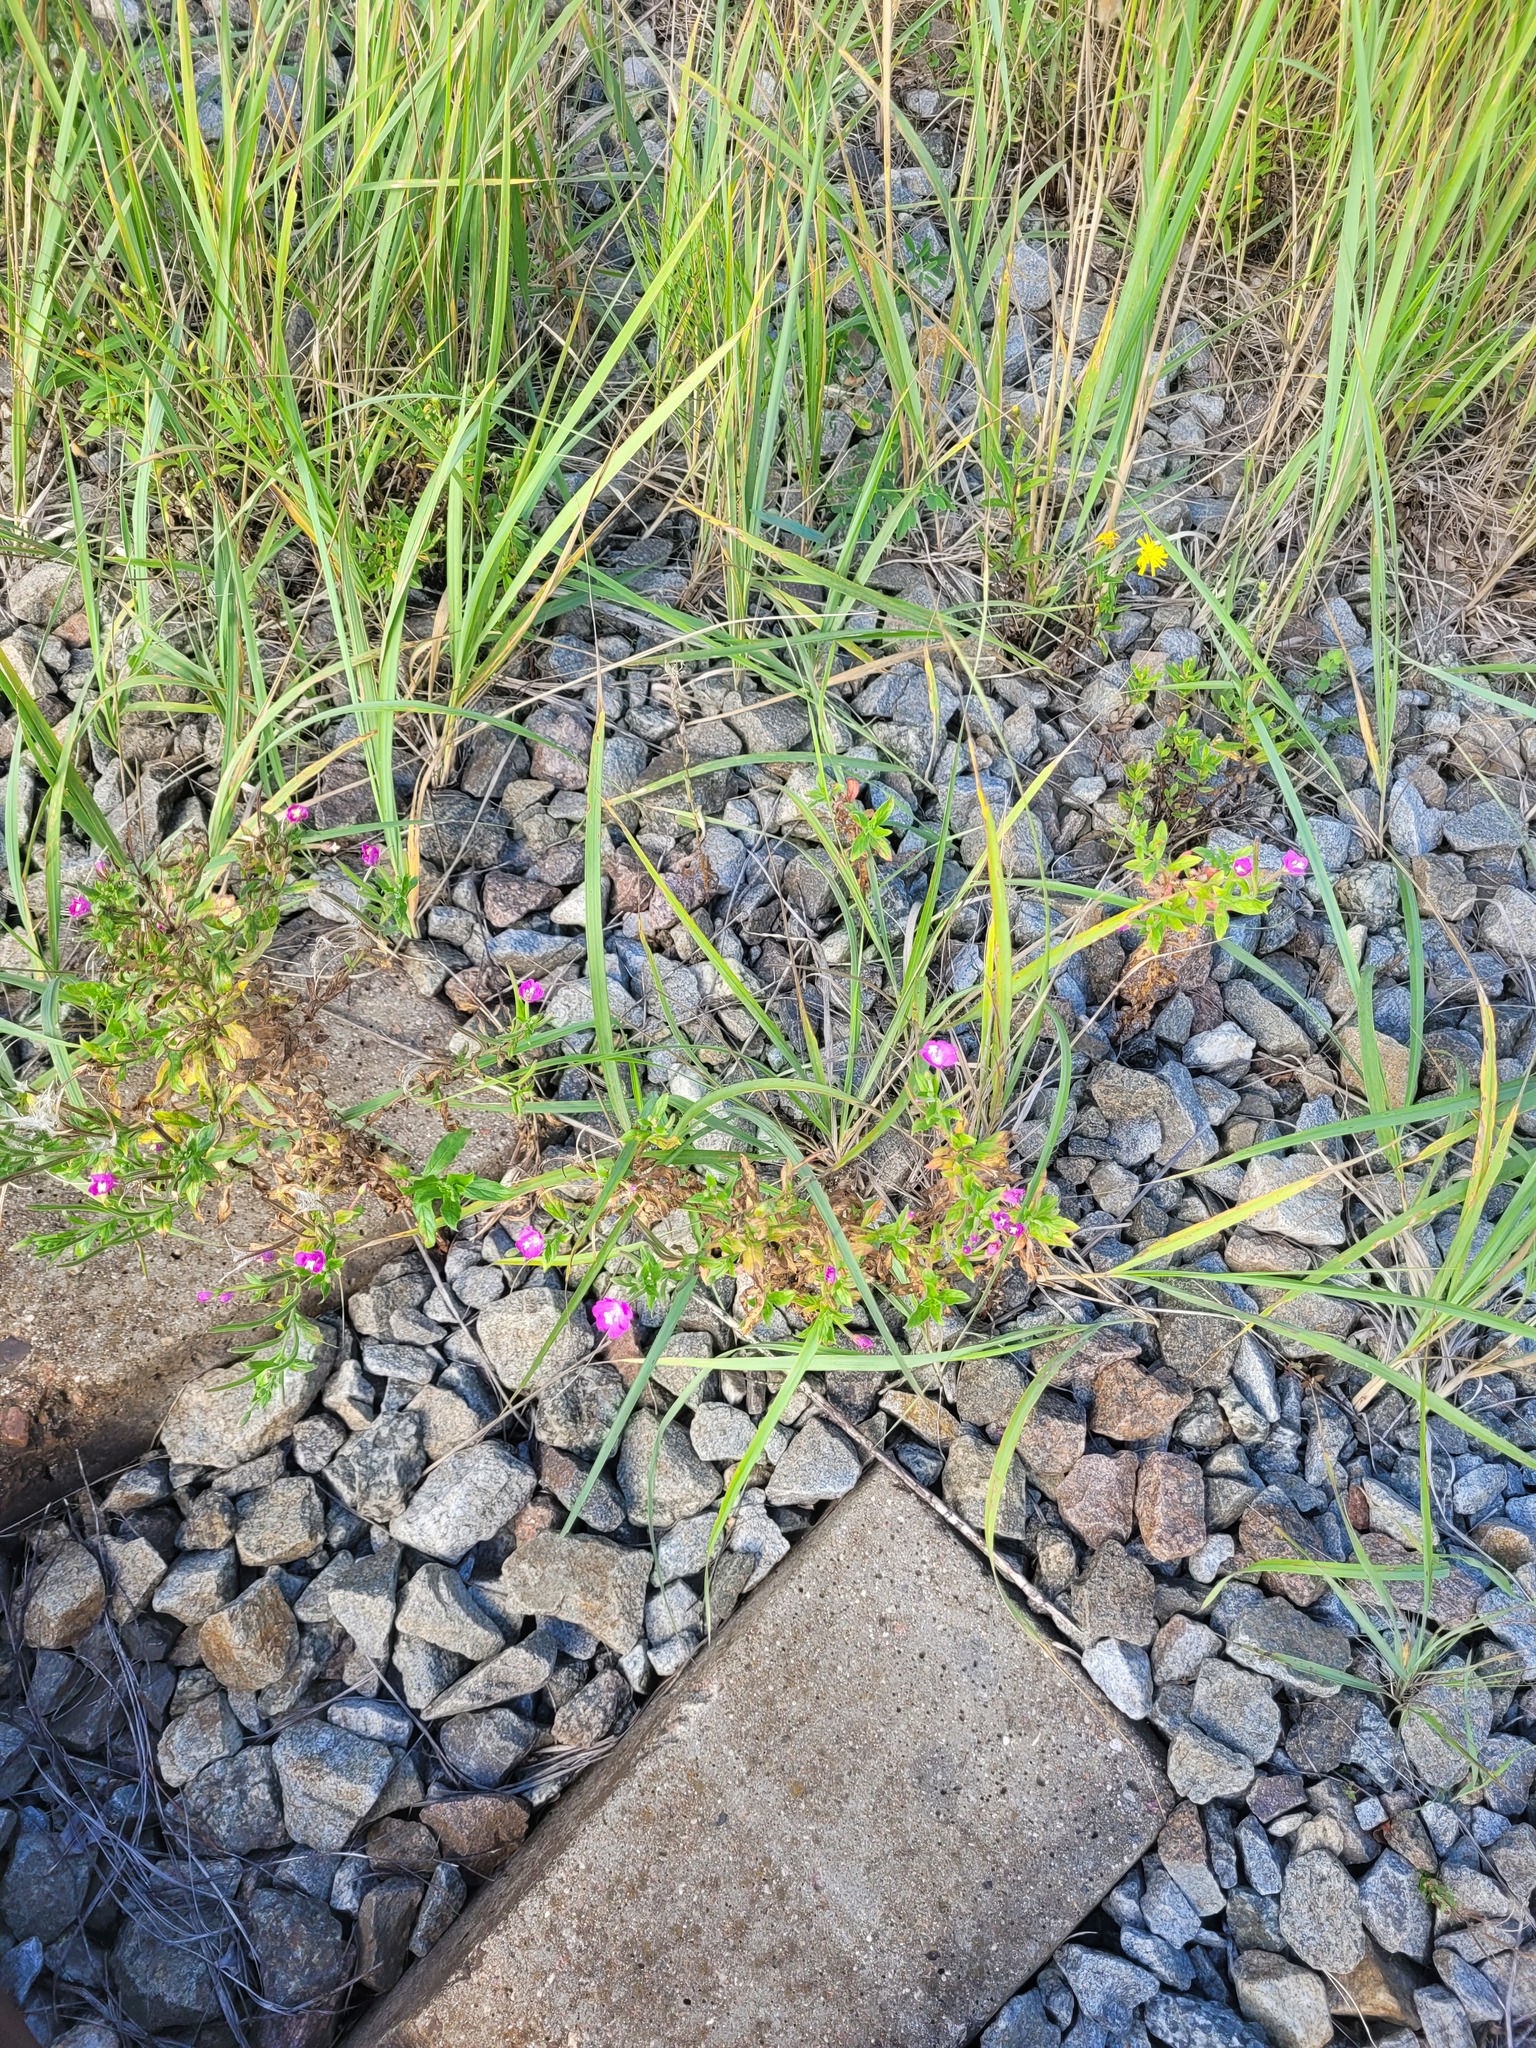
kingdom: Plantae
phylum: Tracheophyta
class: Magnoliopsida
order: Myrtales
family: Onagraceae
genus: Epilobium
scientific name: Epilobium hirsutum
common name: Great willowherb
